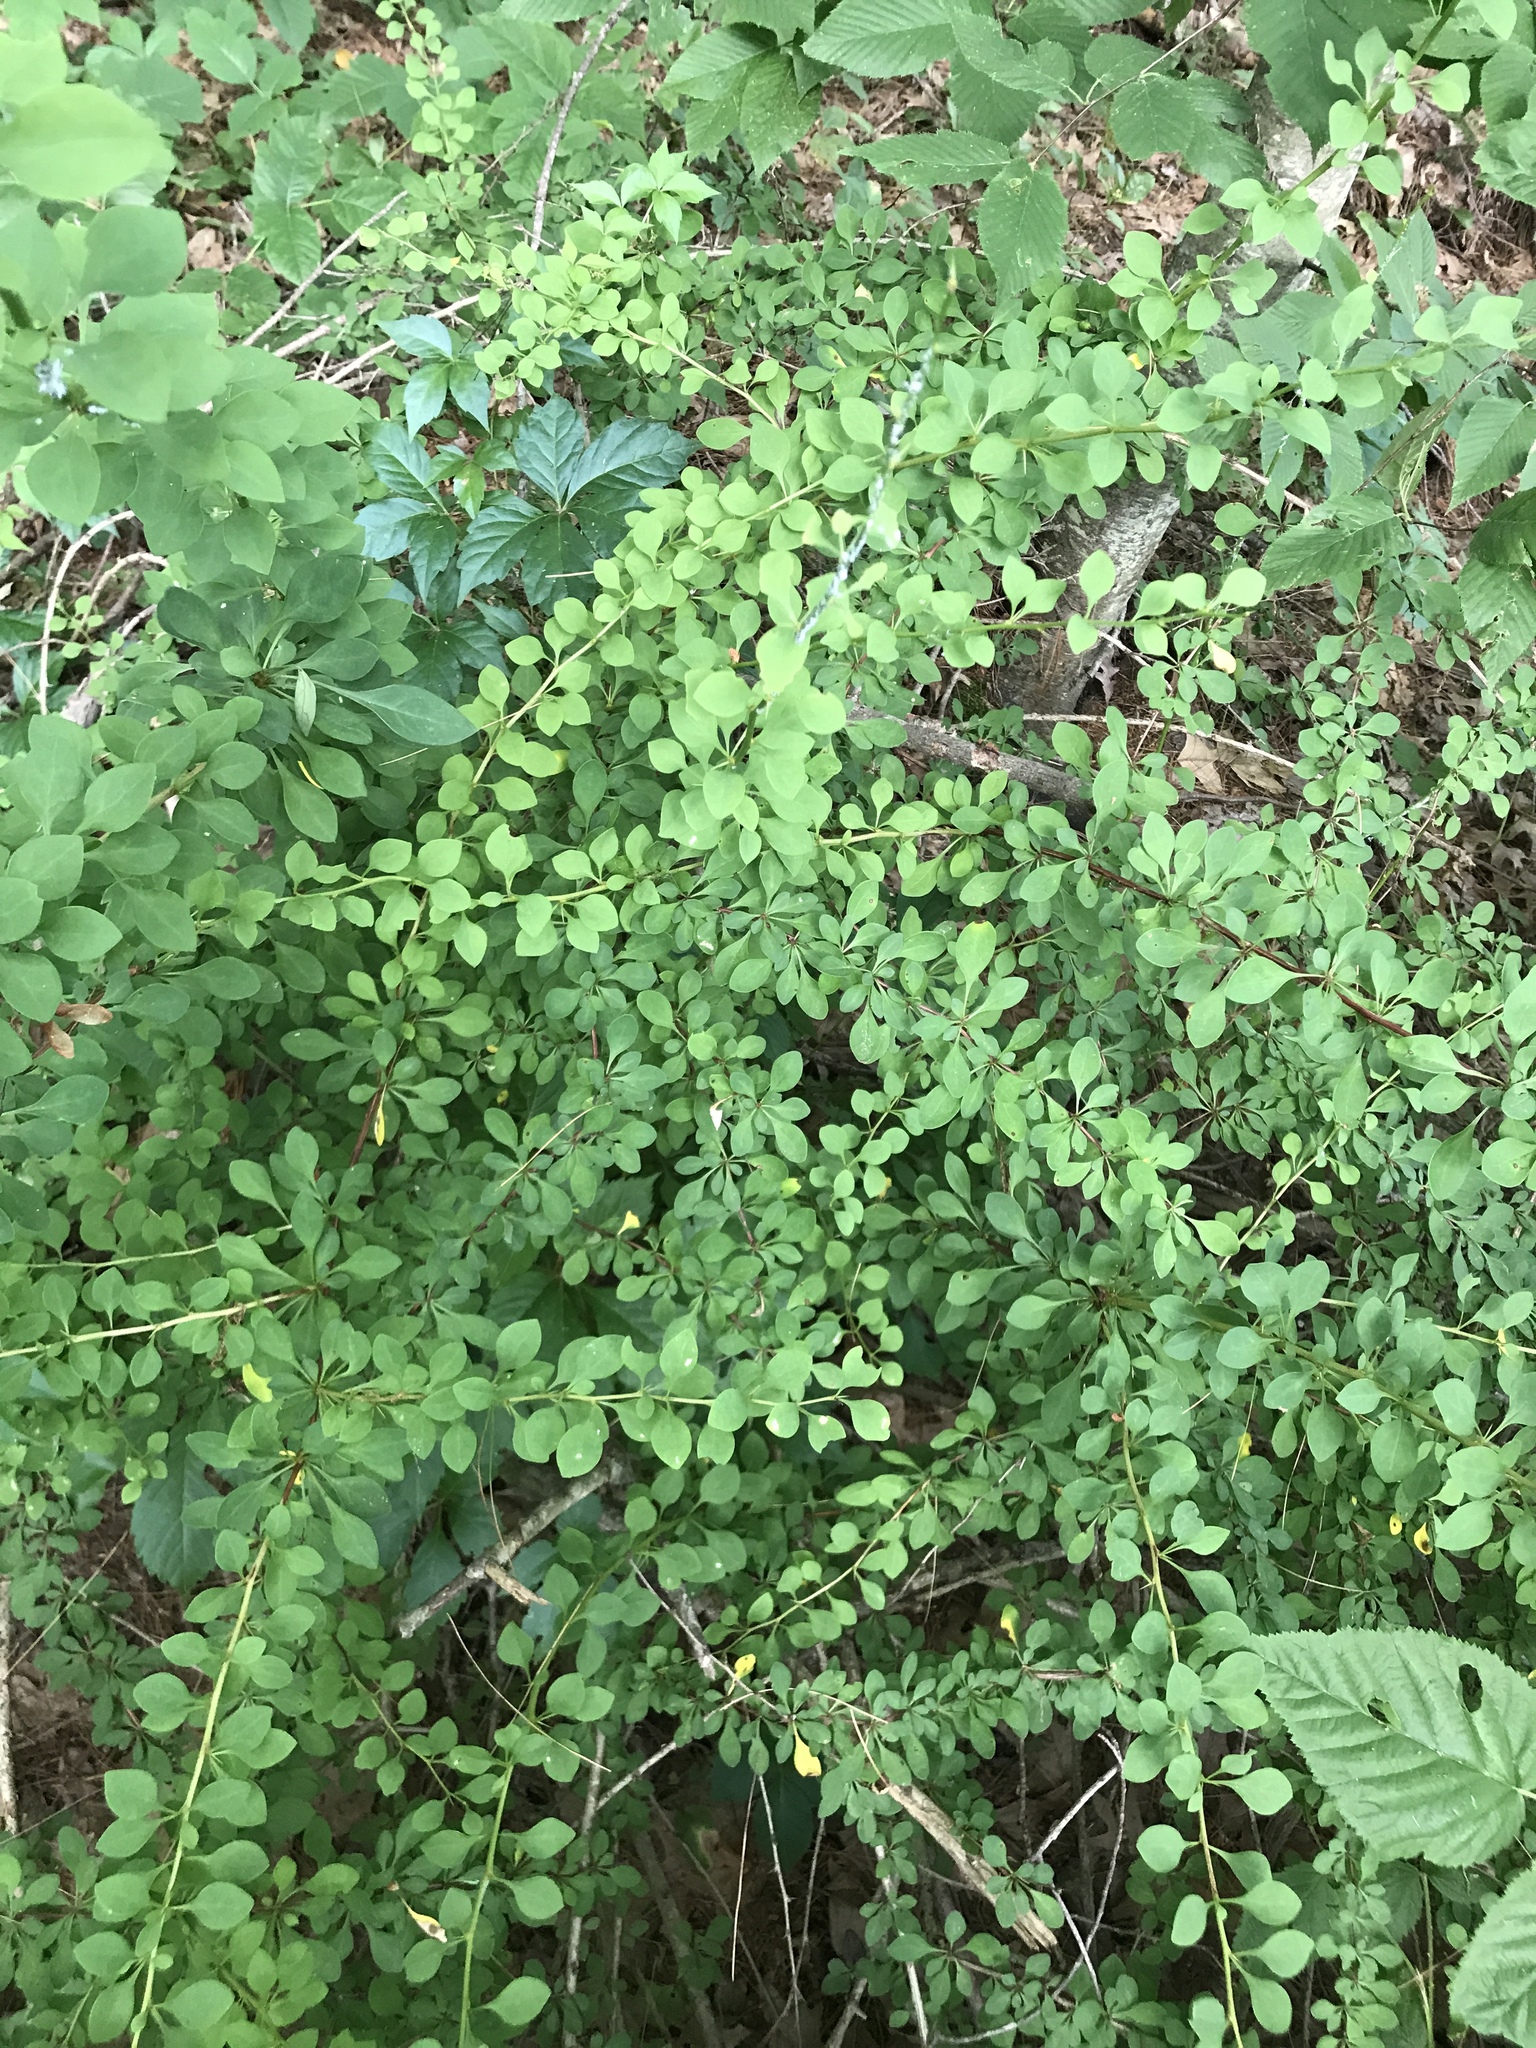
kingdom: Plantae
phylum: Tracheophyta
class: Magnoliopsida
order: Ranunculales
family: Berberidaceae
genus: Berberis
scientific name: Berberis thunbergii
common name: Japanese barberry
